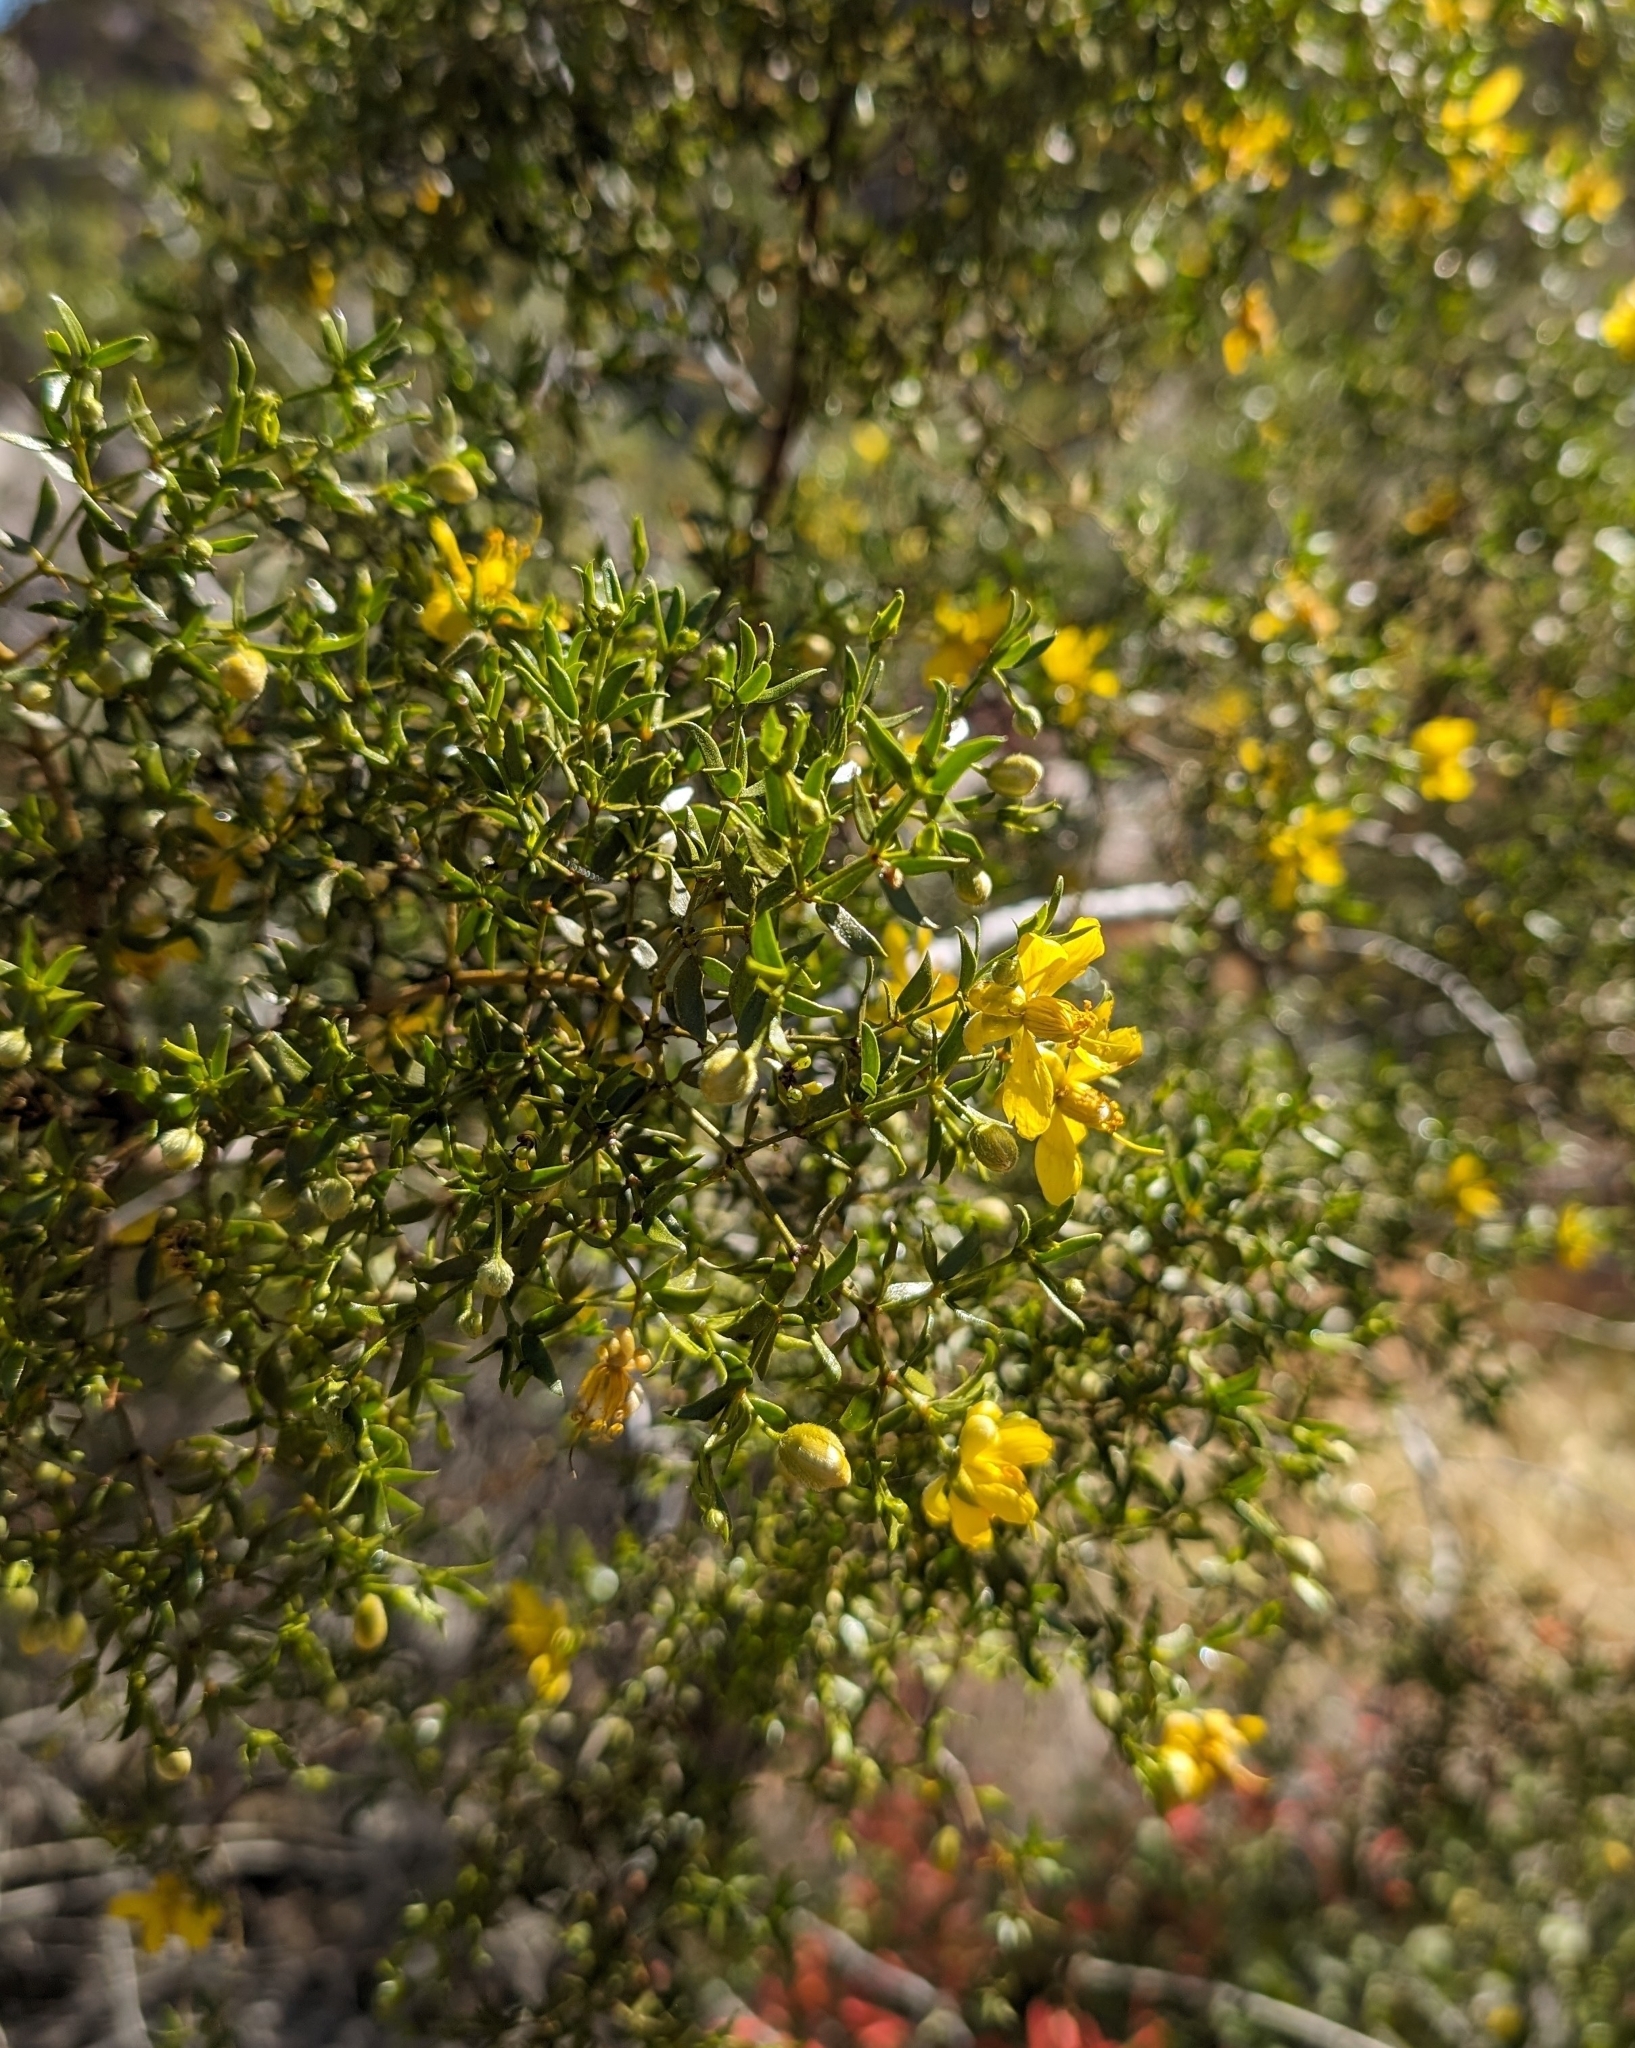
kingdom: Plantae
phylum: Tracheophyta
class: Magnoliopsida
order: Zygophyllales
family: Zygophyllaceae
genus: Larrea
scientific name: Larrea tridentata
